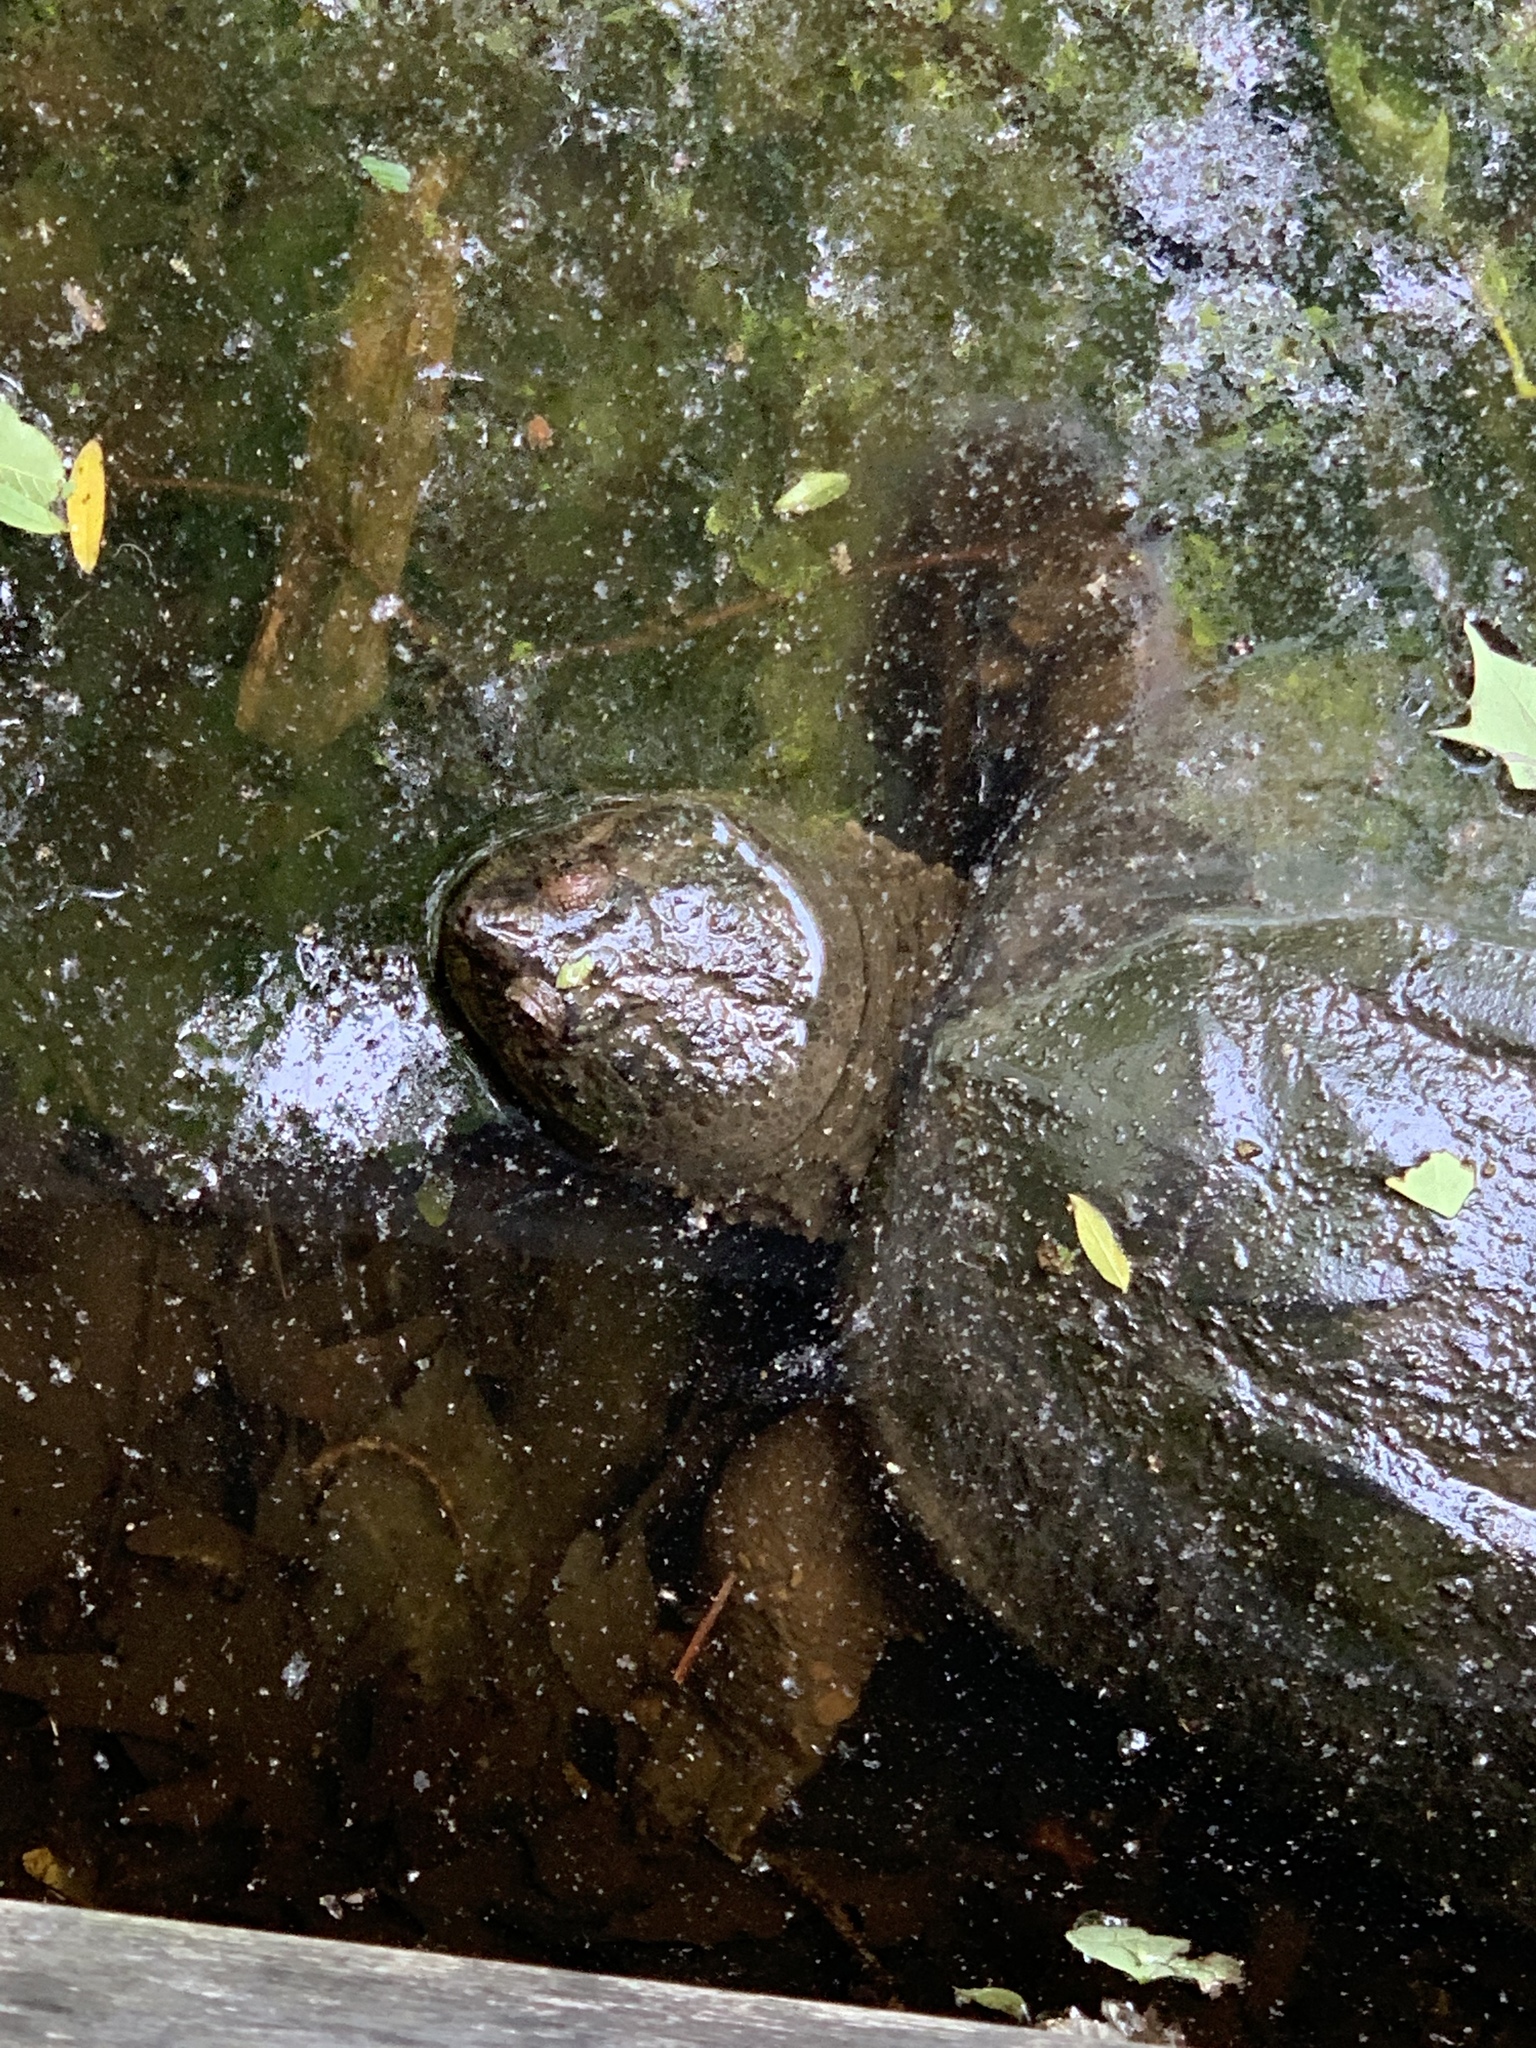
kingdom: Animalia
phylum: Chordata
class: Testudines
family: Chelydridae
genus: Chelydra
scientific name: Chelydra serpentina
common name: Common snapping turtle
